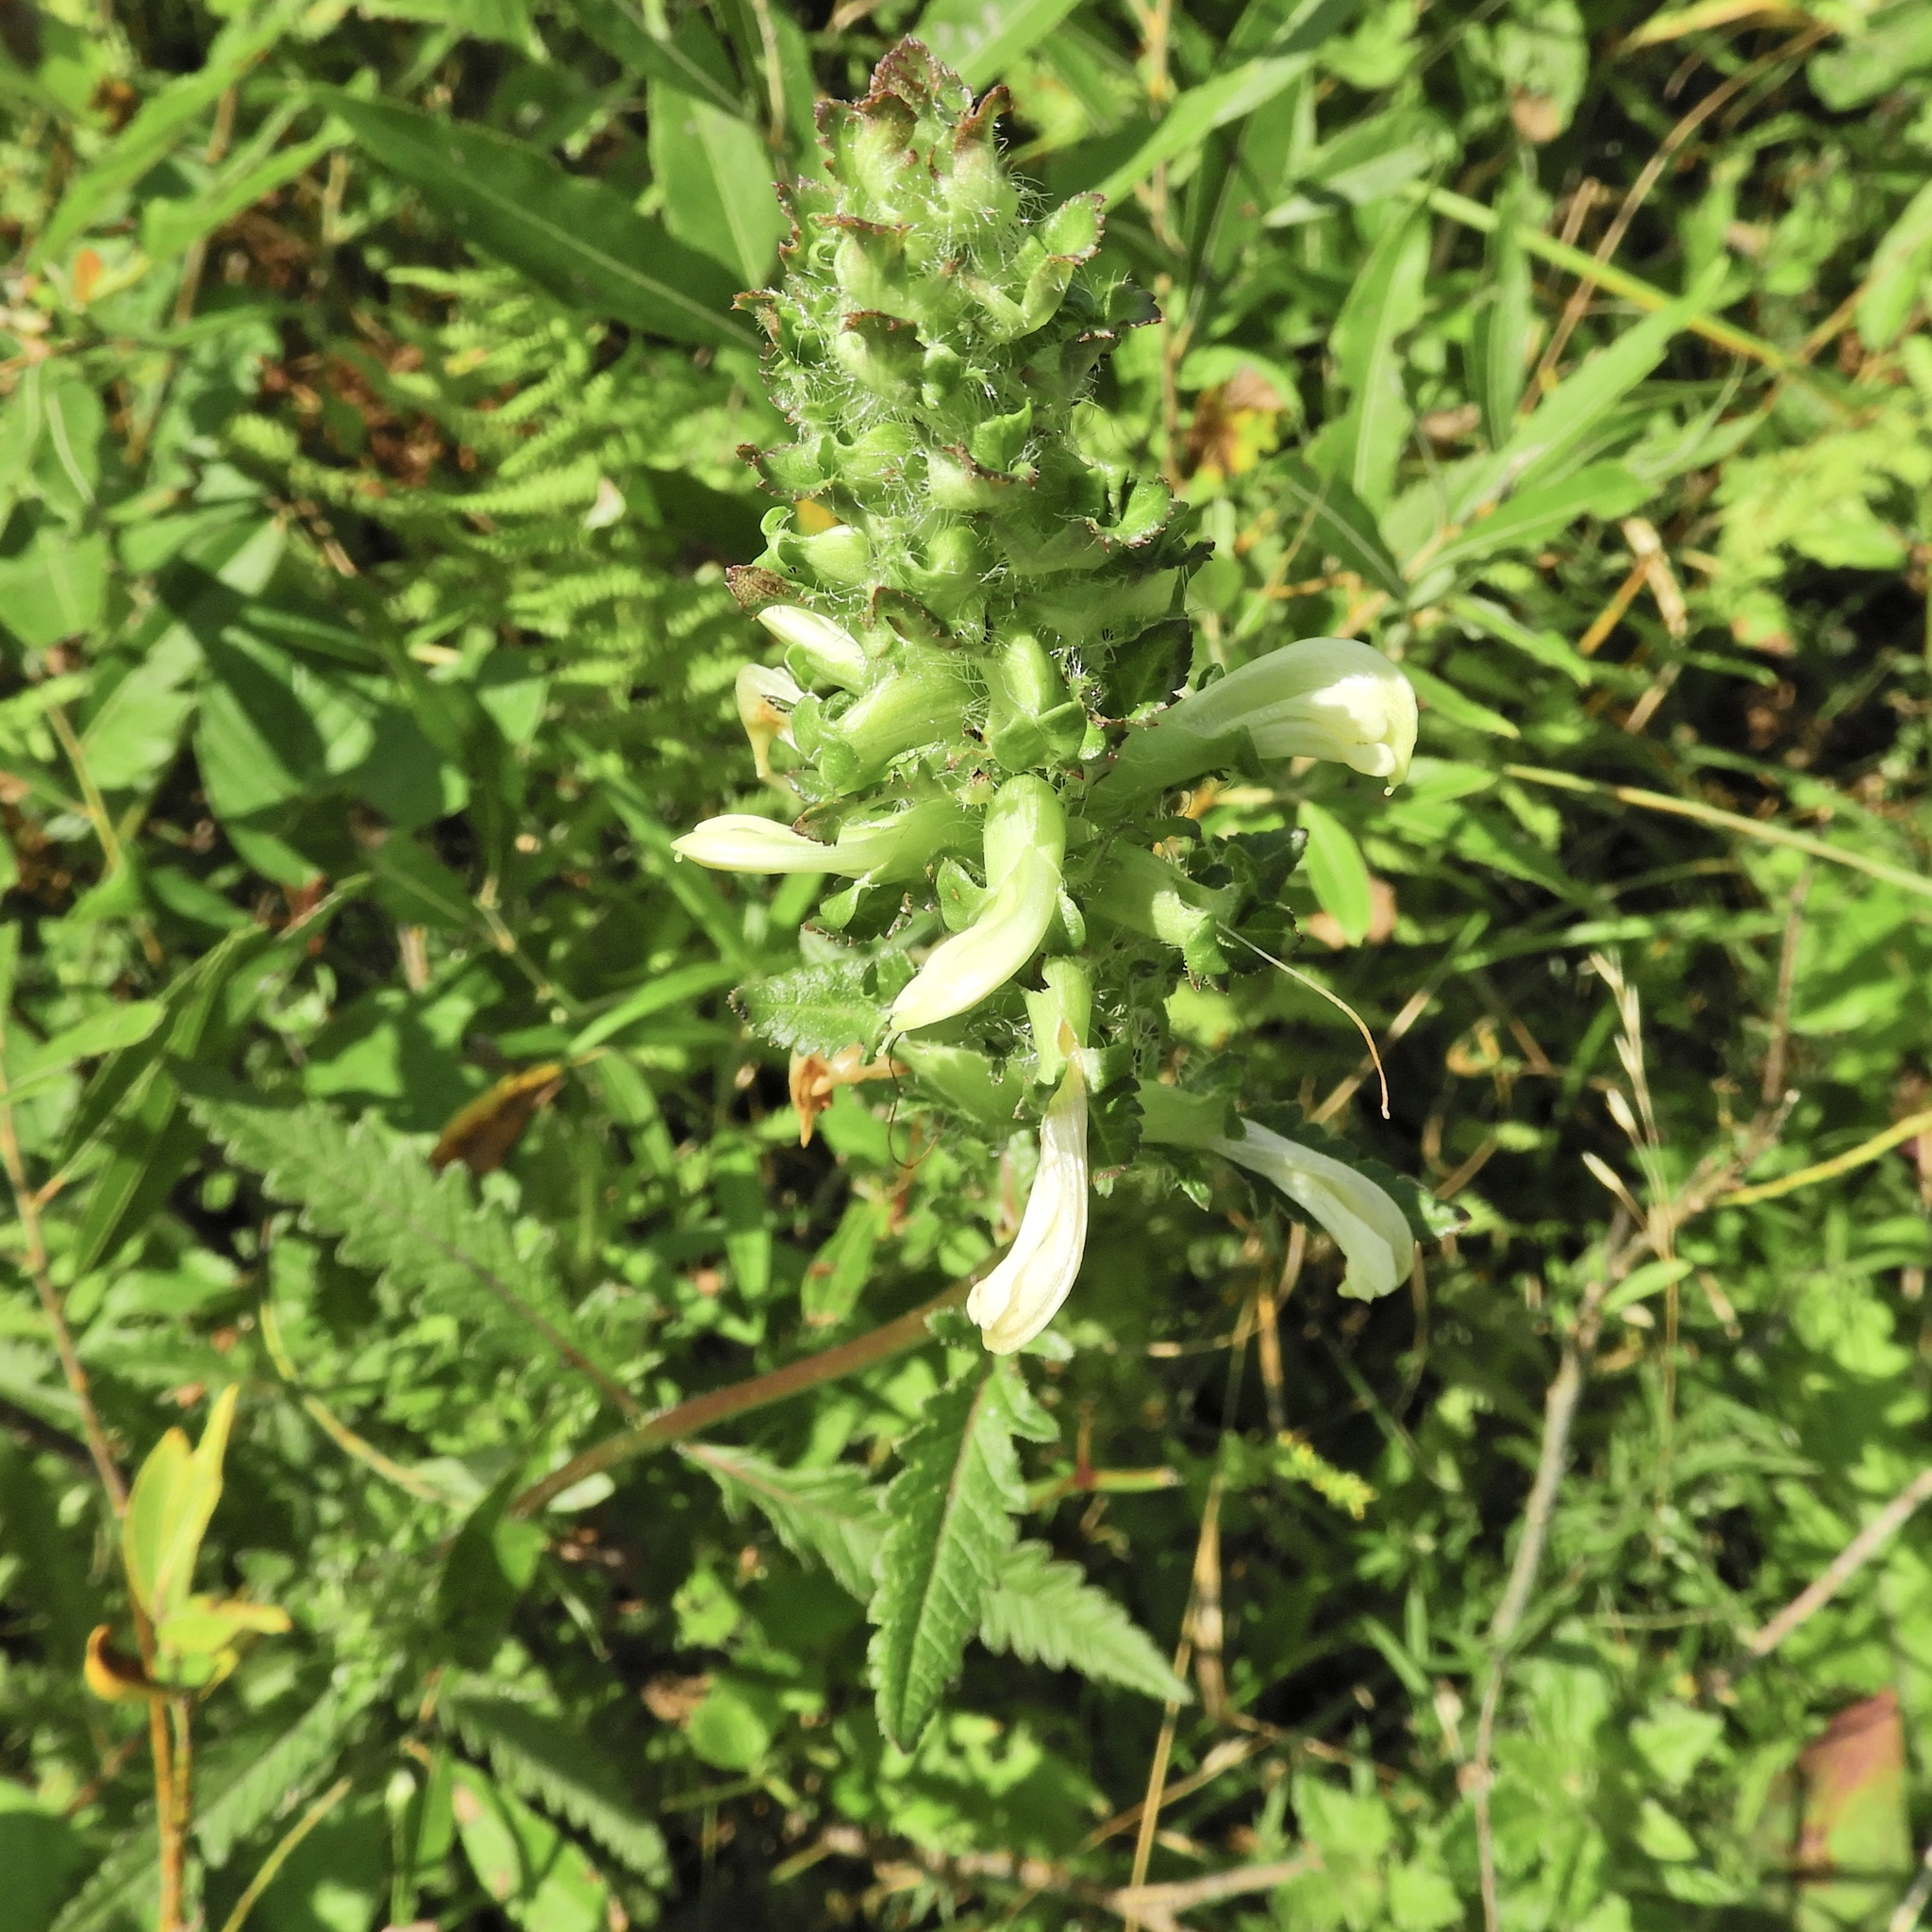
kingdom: Plantae
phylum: Tracheophyta
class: Magnoliopsida
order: Lamiales
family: Orobanchaceae
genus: Pedicularis
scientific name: Pedicularis lanceolata
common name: Swamp lousewort
